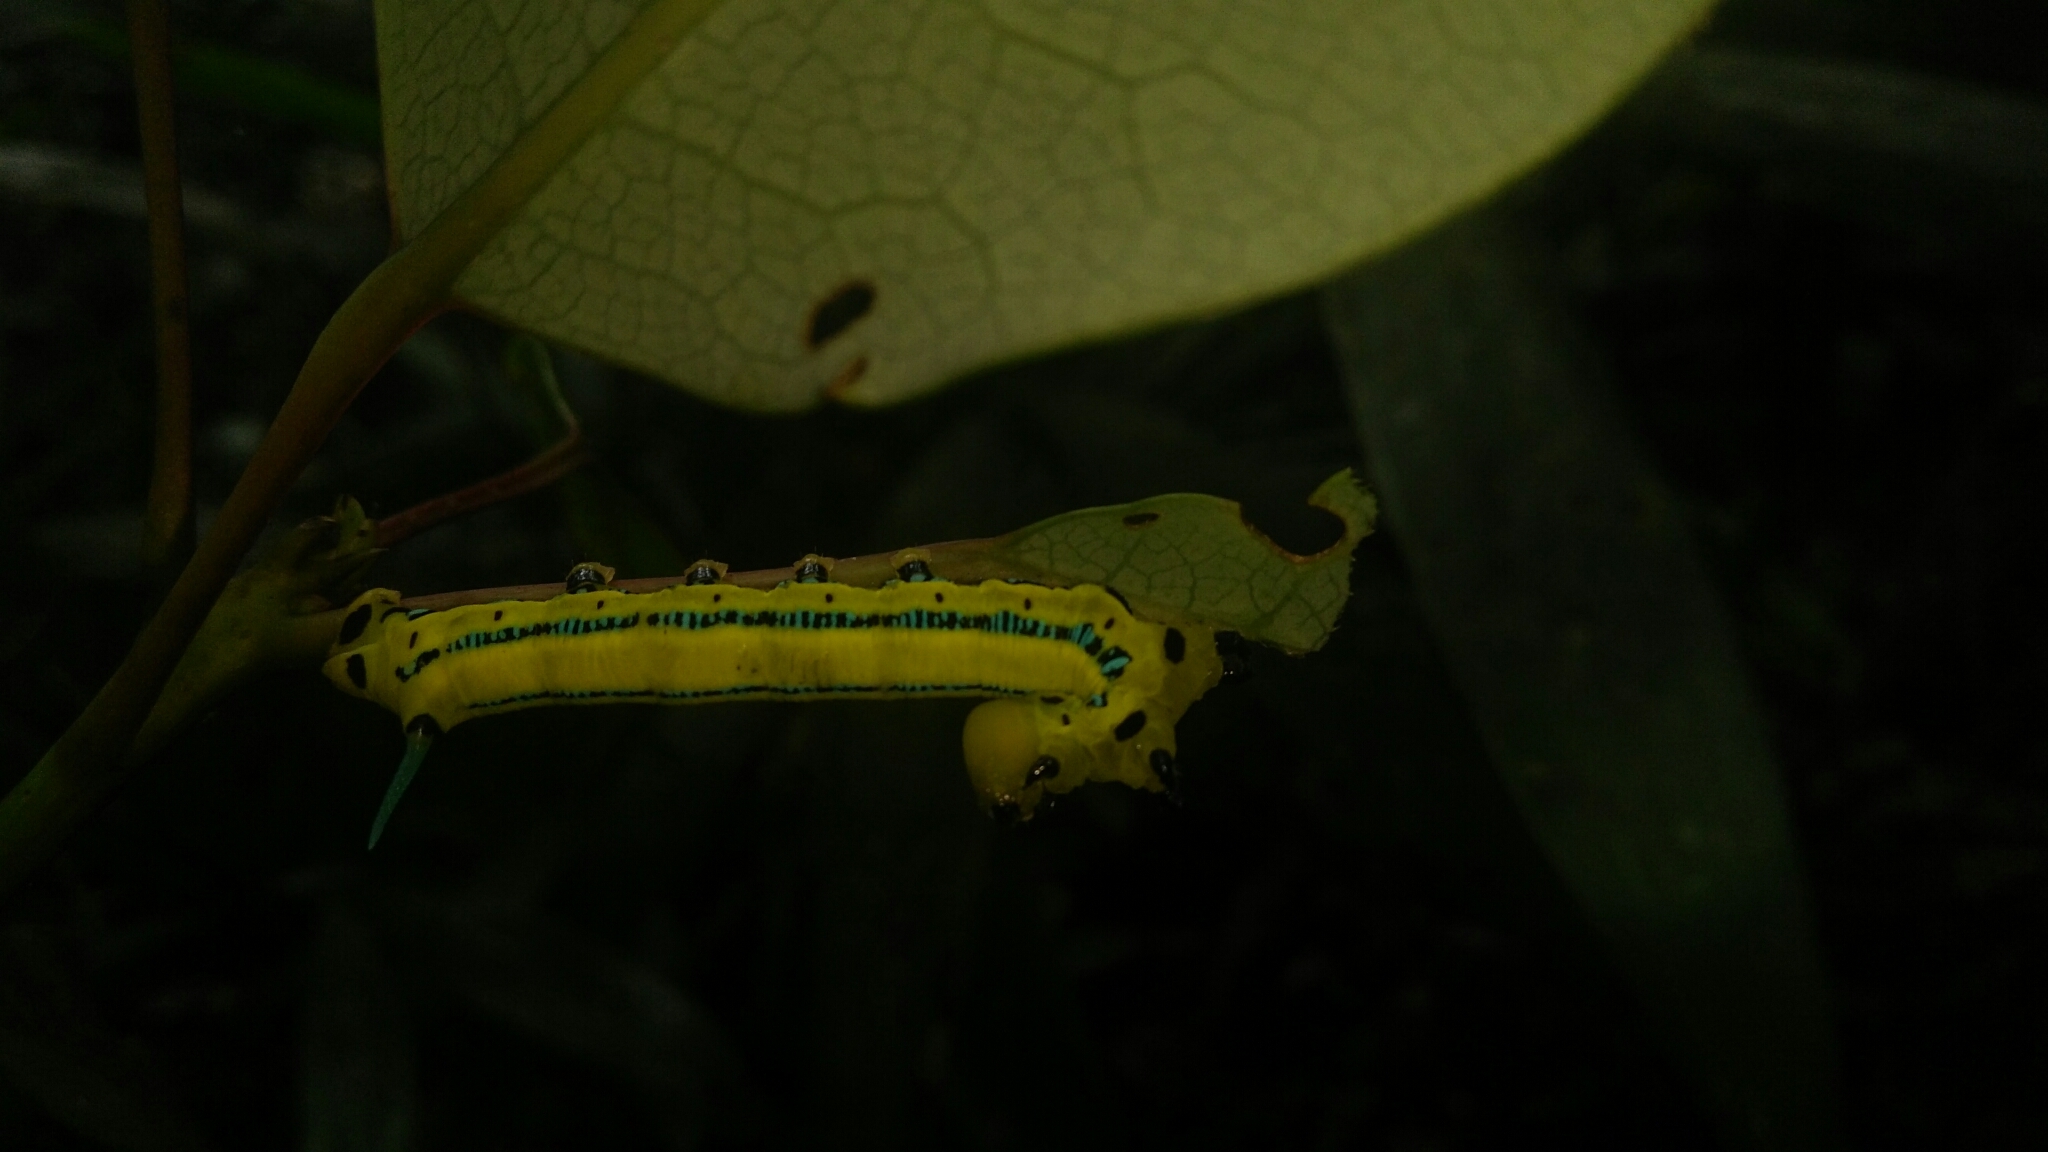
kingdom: Animalia
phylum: Arthropoda
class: Insecta
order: Lepidoptera
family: Sphingidae
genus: Macroglossum
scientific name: Macroglossum passalus
